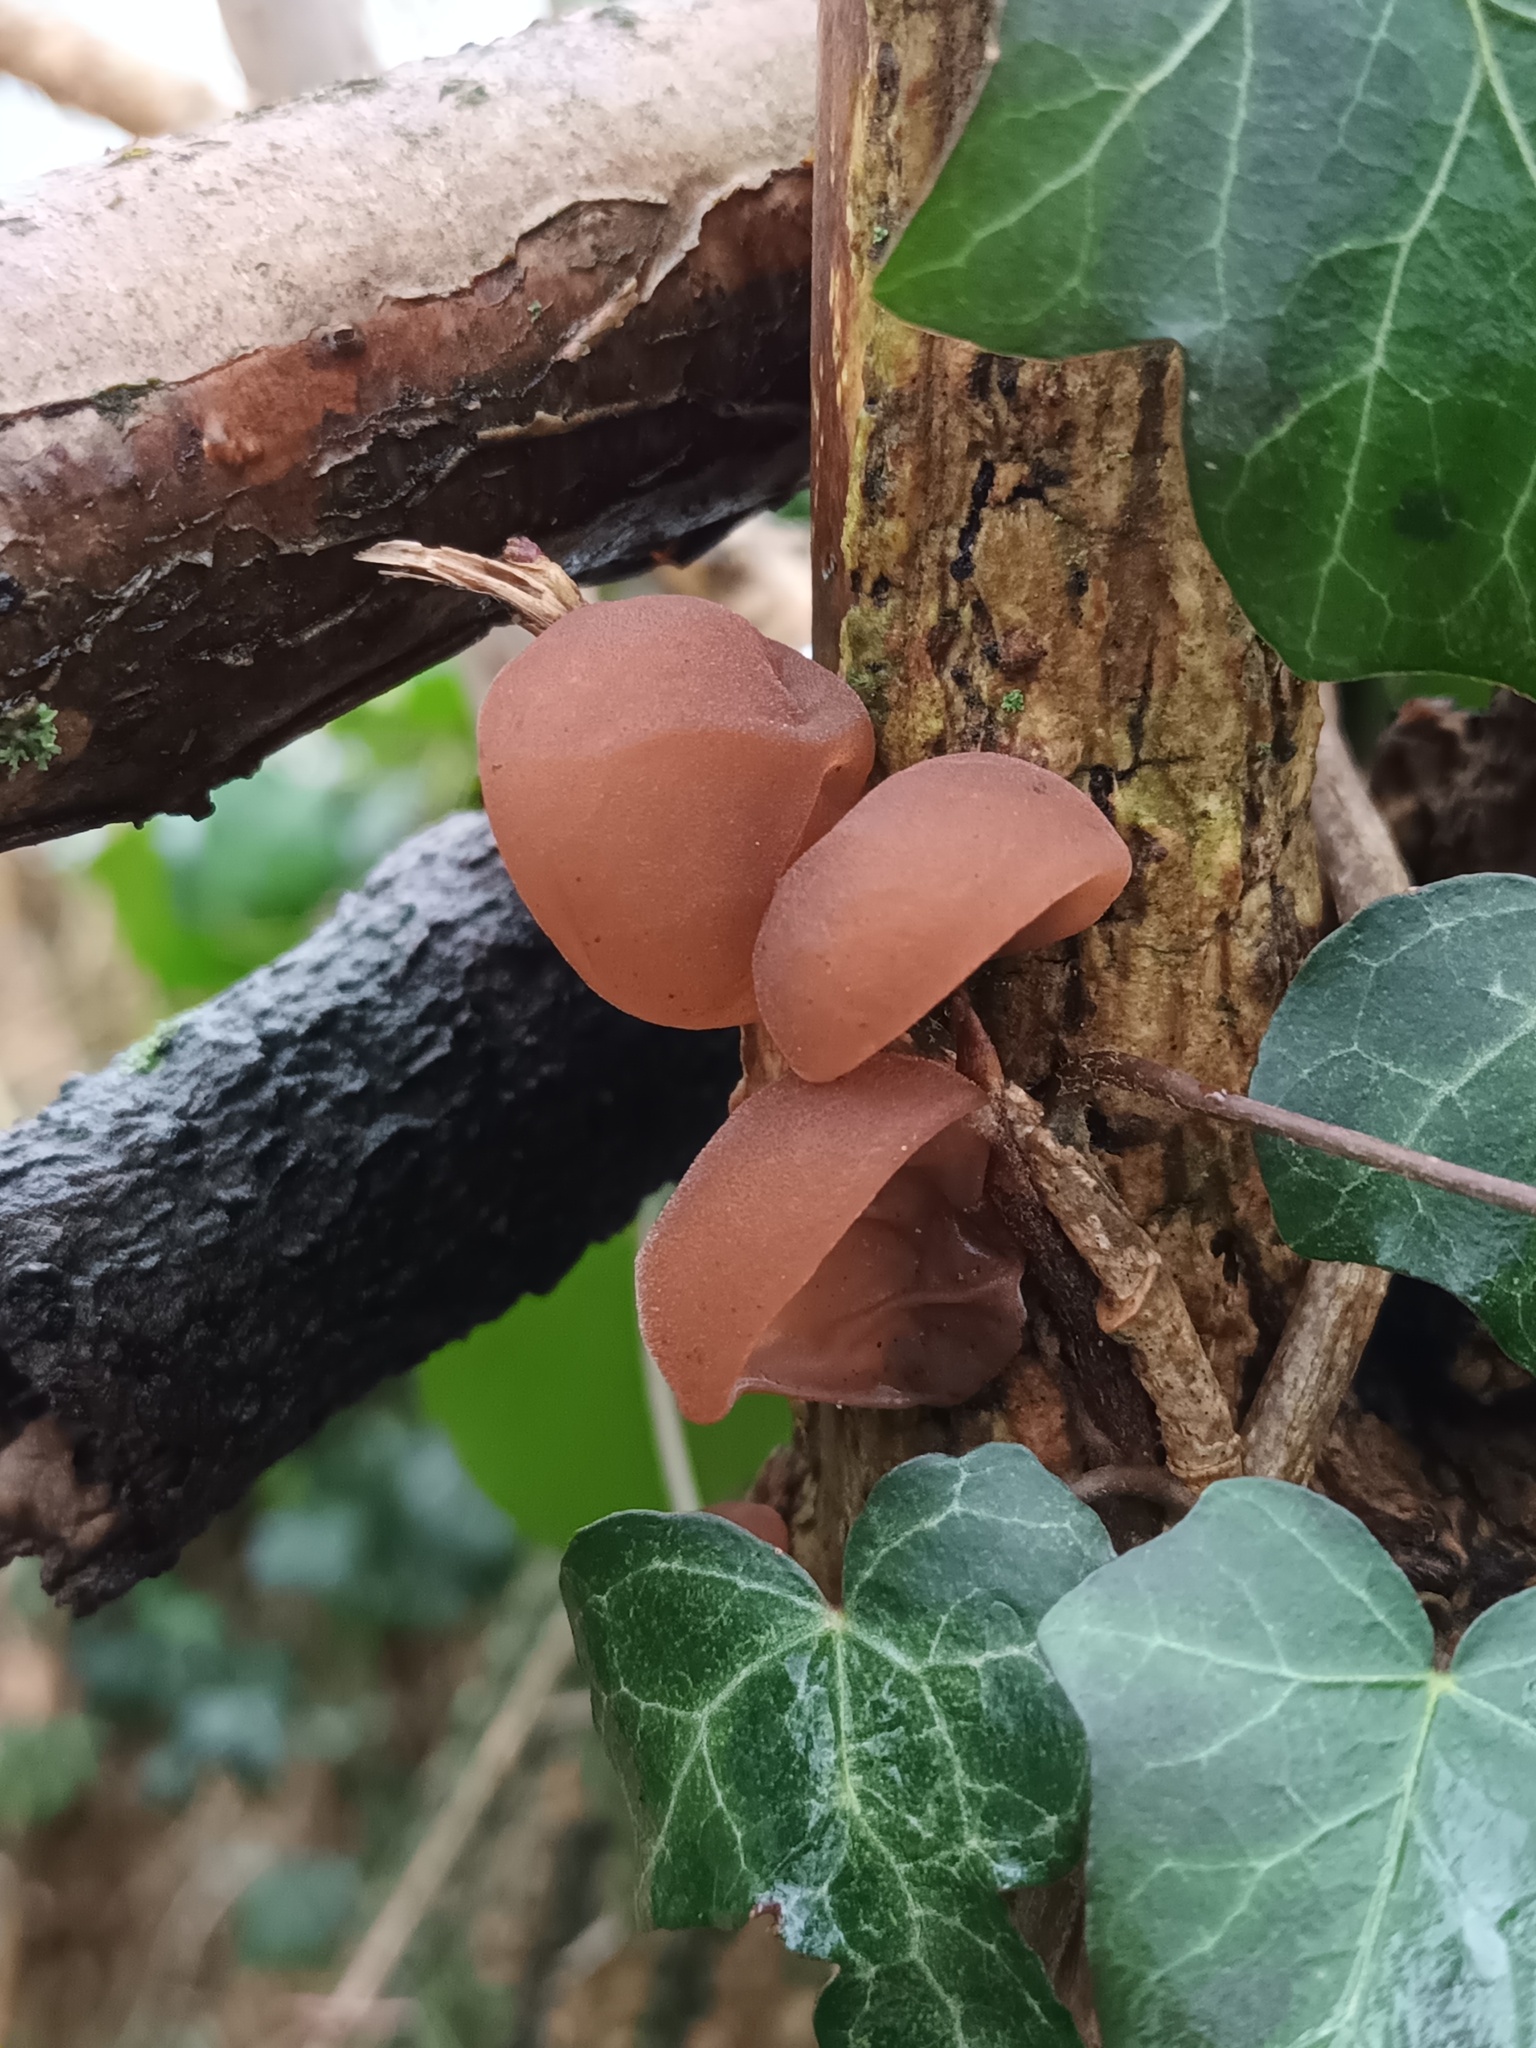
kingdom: Fungi
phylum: Basidiomycota
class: Agaricomycetes
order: Auriculariales
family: Auriculariaceae
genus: Auricularia
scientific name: Auricularia auricula-judae
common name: Jelly ear
